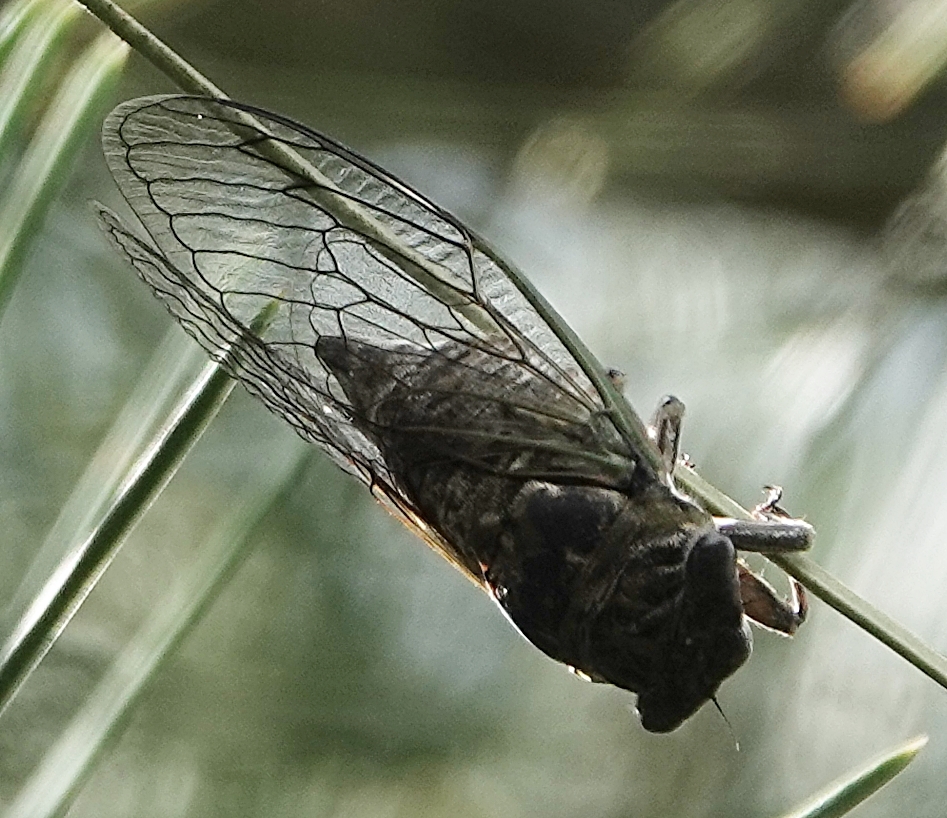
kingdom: Animalia
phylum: Arthropoda
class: Insecta
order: Hemiptera
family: Cicadidae
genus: Neotibicen
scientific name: Neotibicen canicularis
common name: God-day cicada
